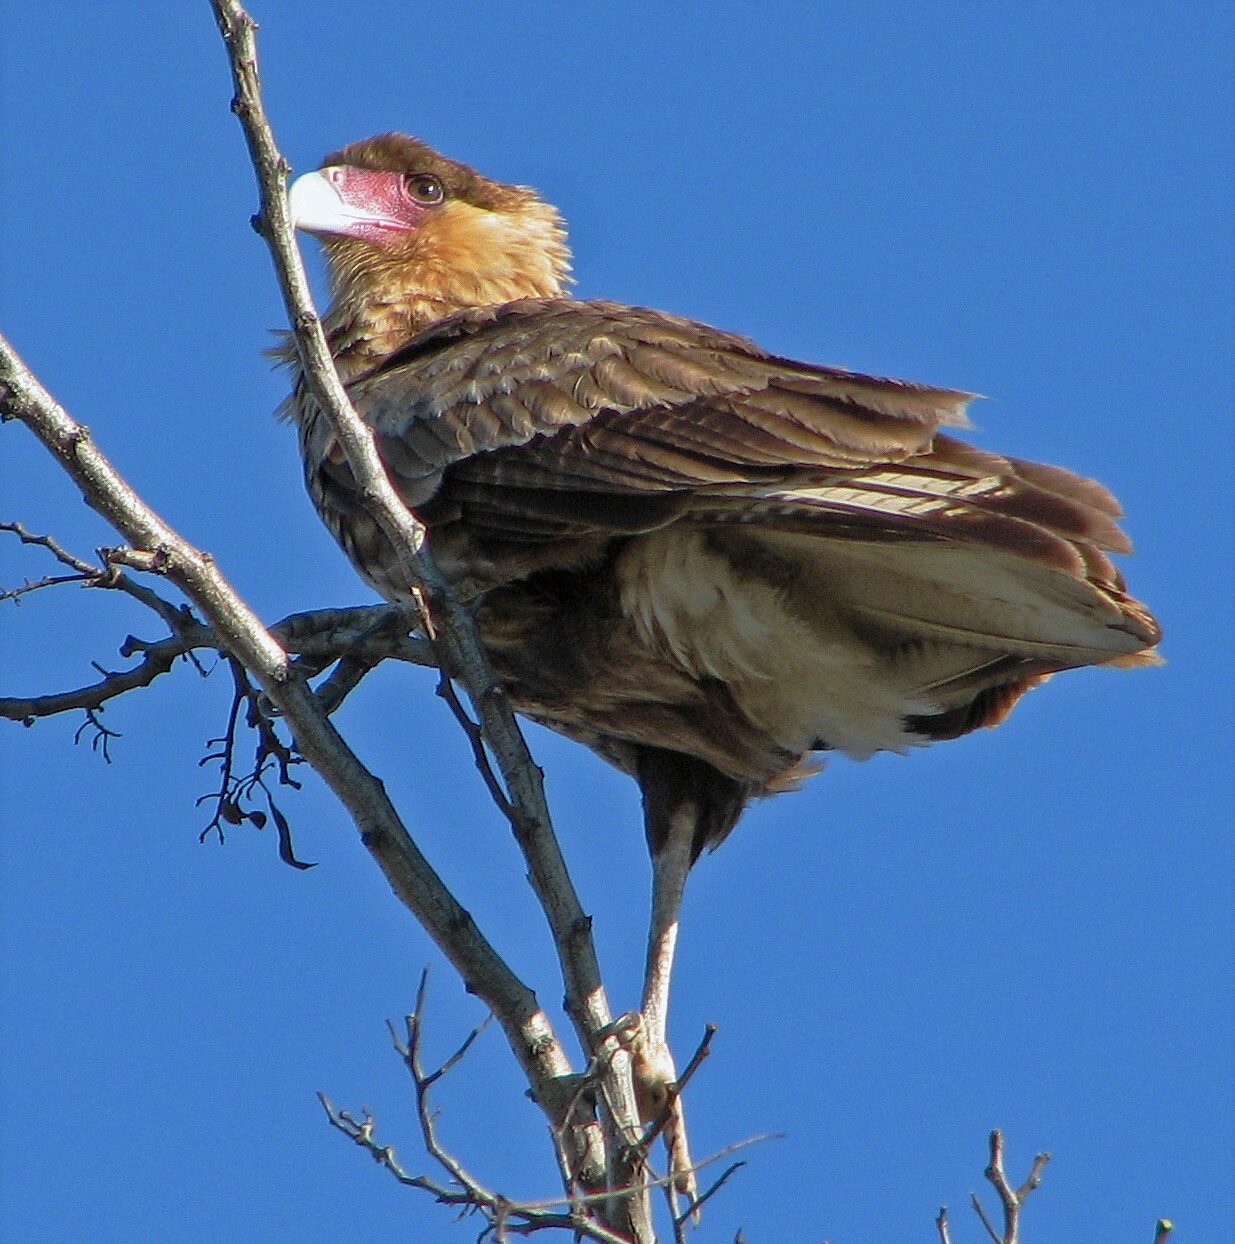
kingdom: Animalia
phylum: Chordata
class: Aves
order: Falconiformes
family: Falconidae
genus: Caracara
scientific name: Caracara plancus
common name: Southern caracara
